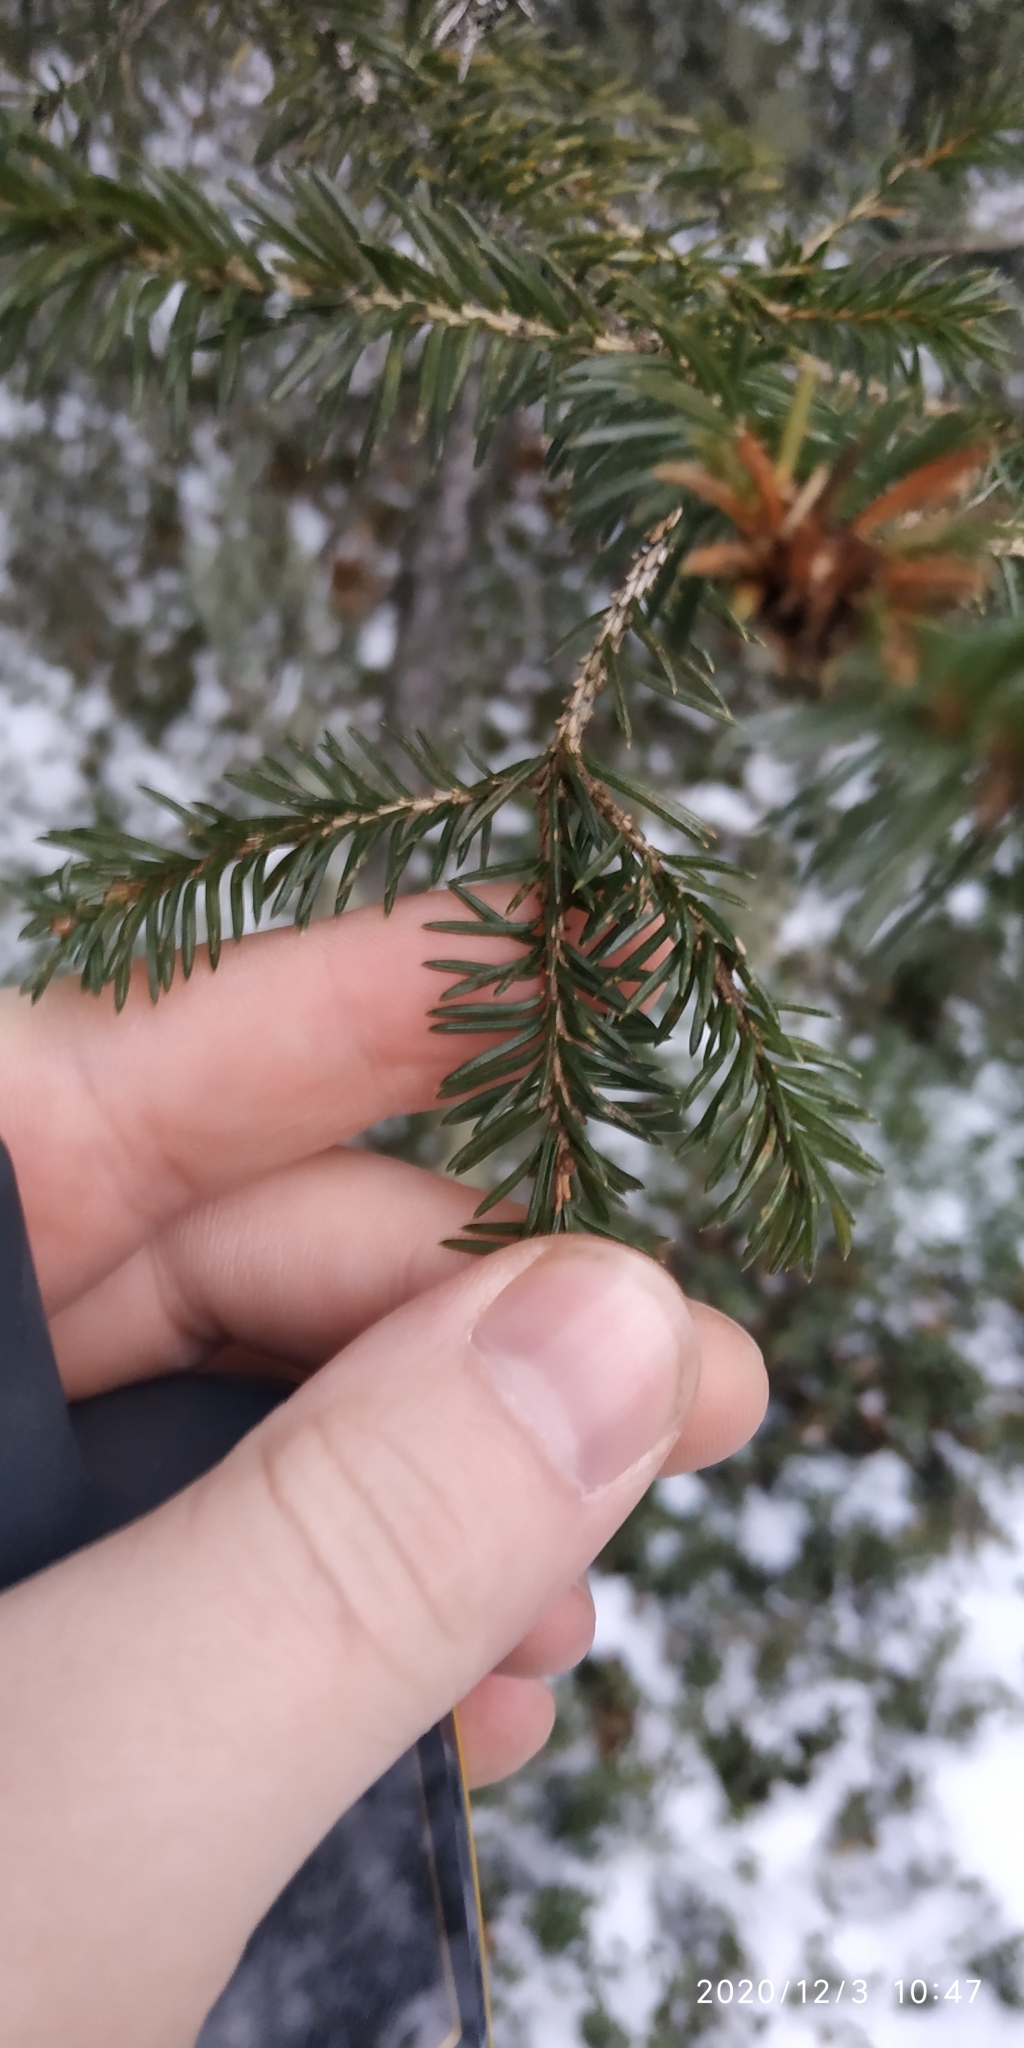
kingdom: Plantae
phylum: Tracheophyta
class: Pinopsida
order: Pinales
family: Pinaceae
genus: Picea
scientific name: Picea obovata
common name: Siberian spruce
